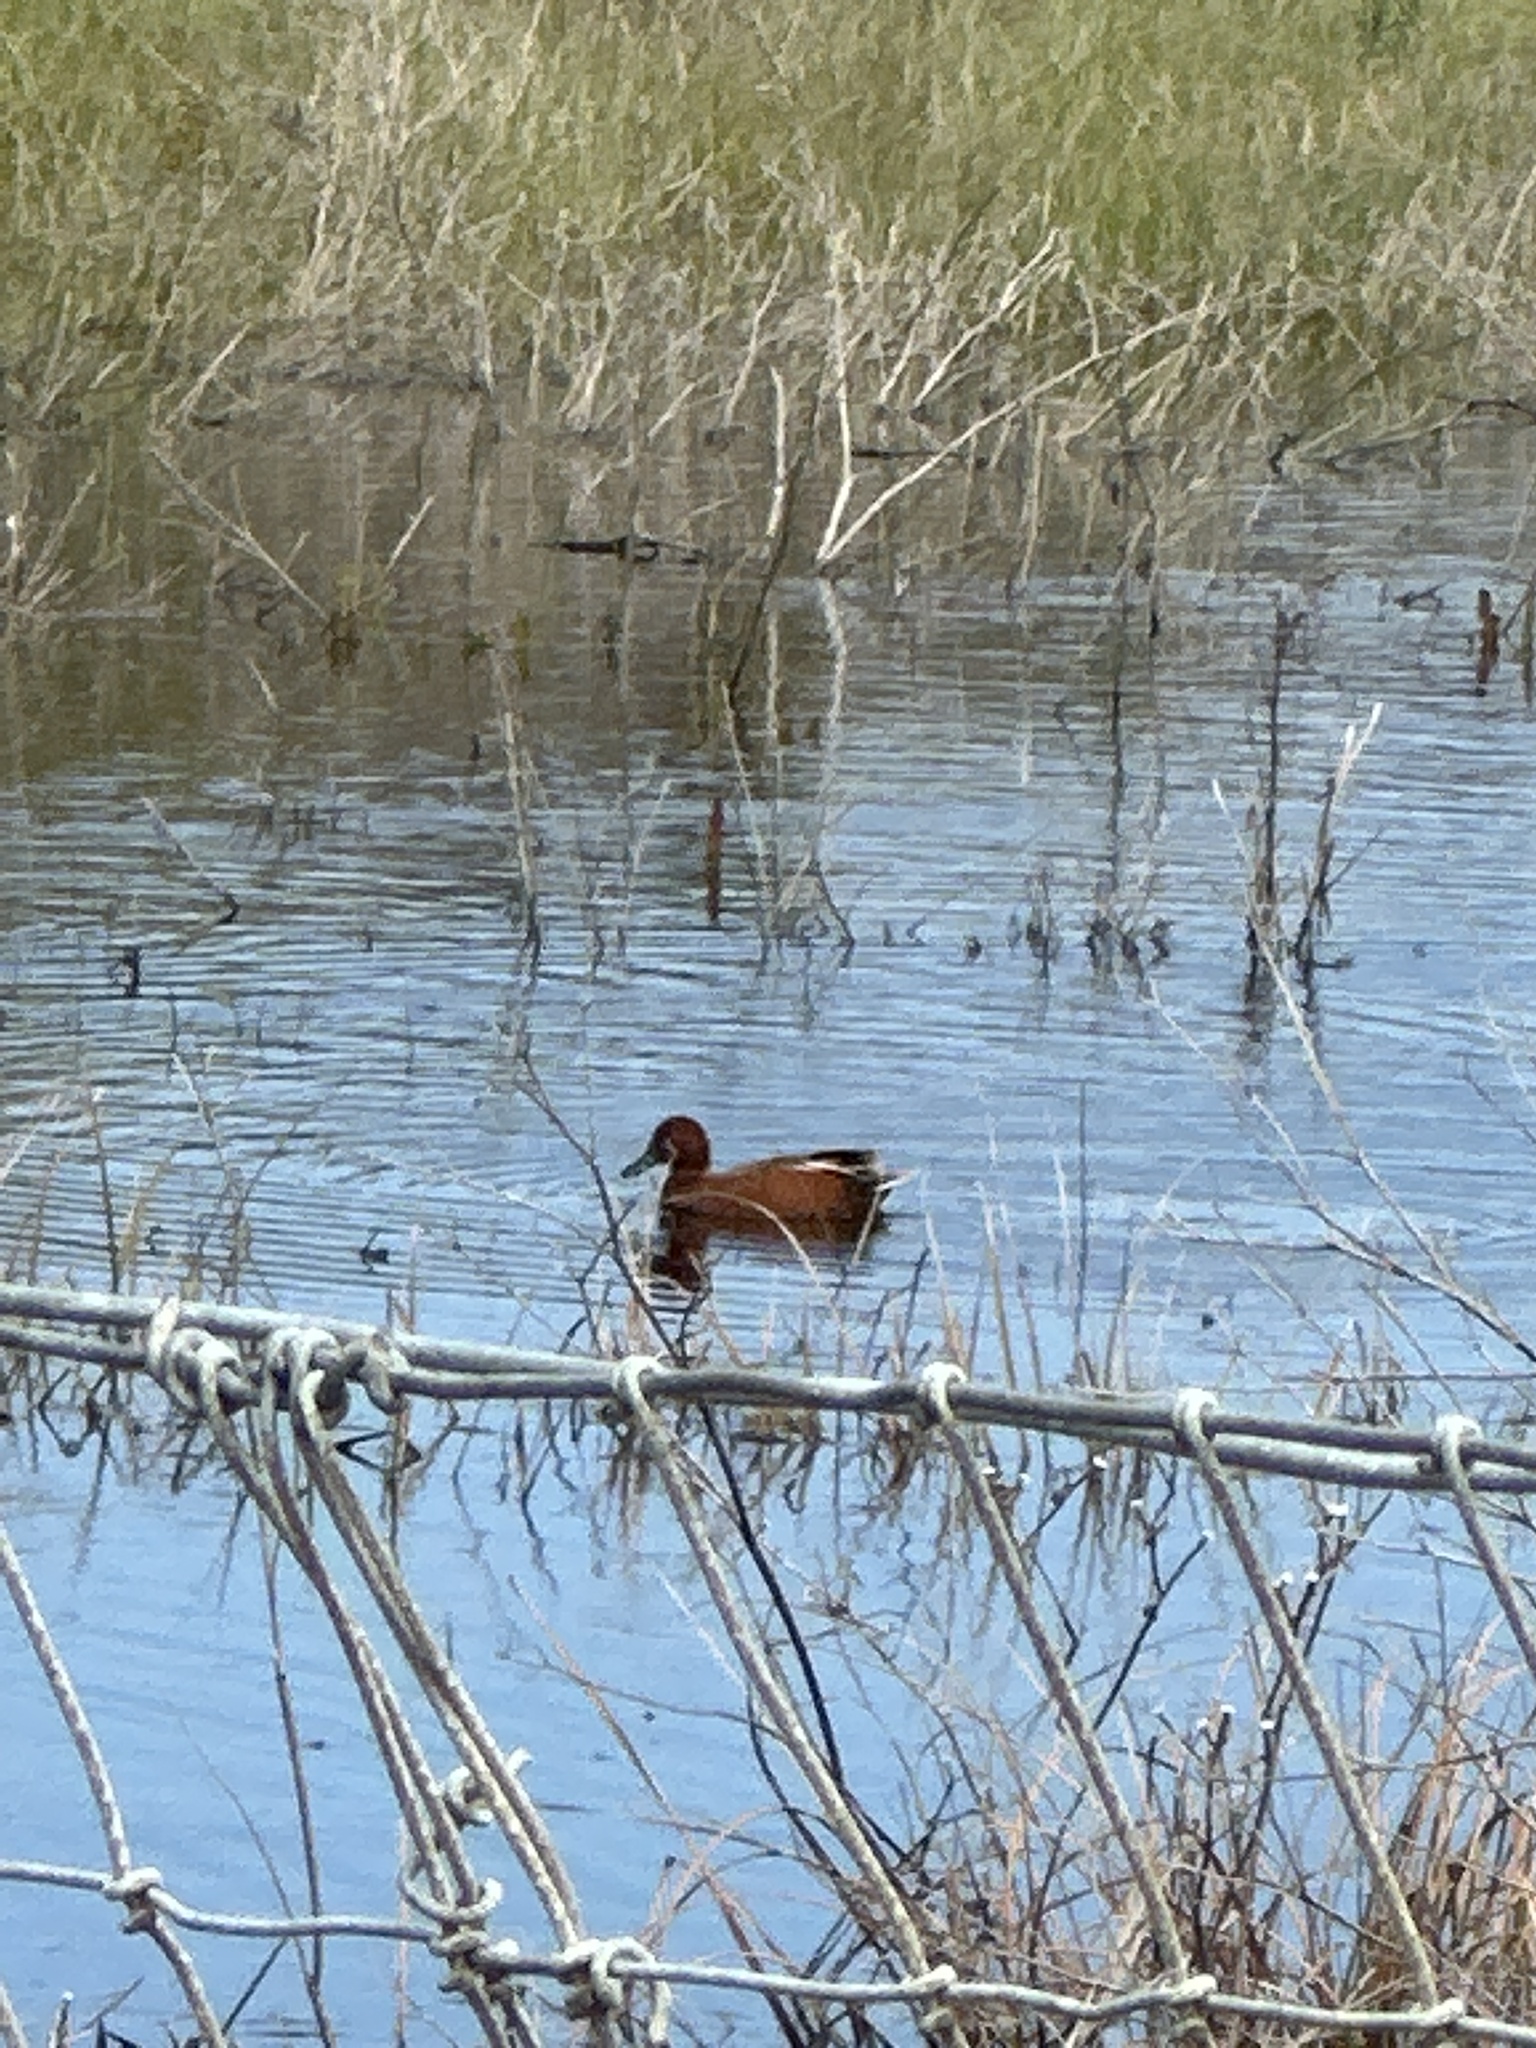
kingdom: Animalia
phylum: Chordata
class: Aves
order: Anseriformes
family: Anatidae
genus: Spatula
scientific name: Spatula cyanoptera
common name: Cinnamon teal
